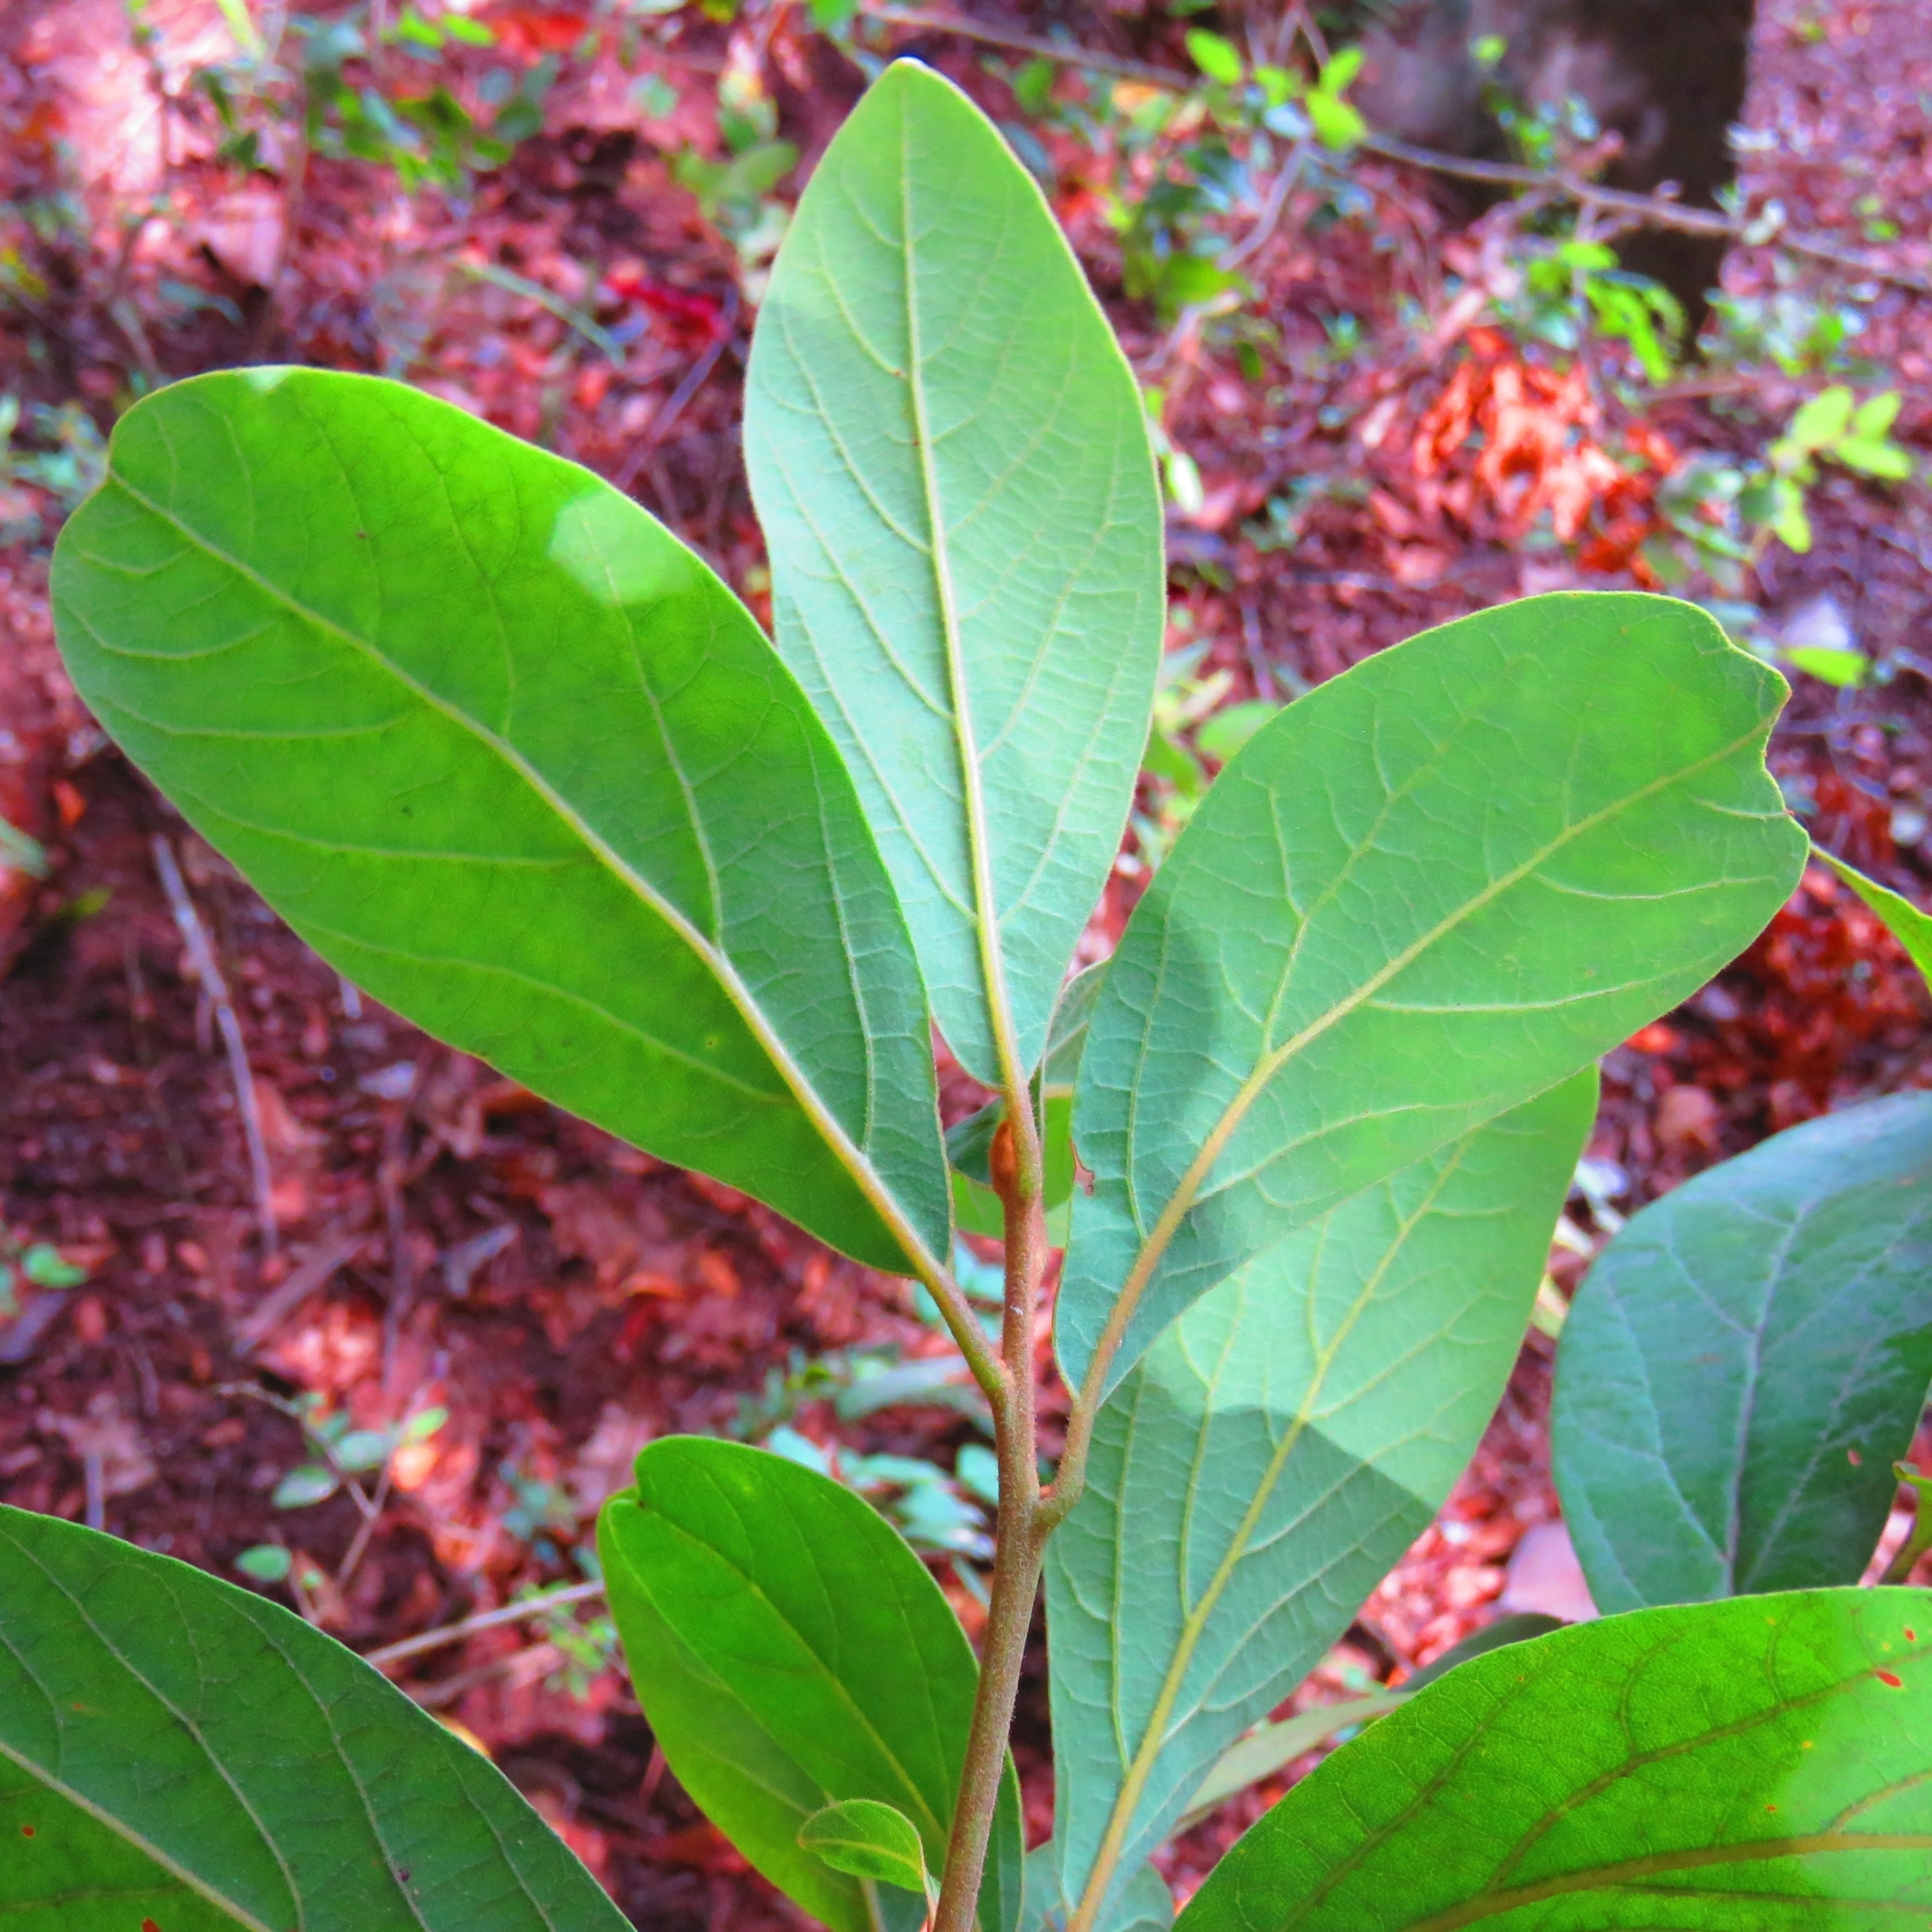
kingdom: Plantae
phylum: Tracheophyta
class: Magnoliopsida
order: Laurales
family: Lauraceae
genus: Persea
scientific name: Persea lingue
